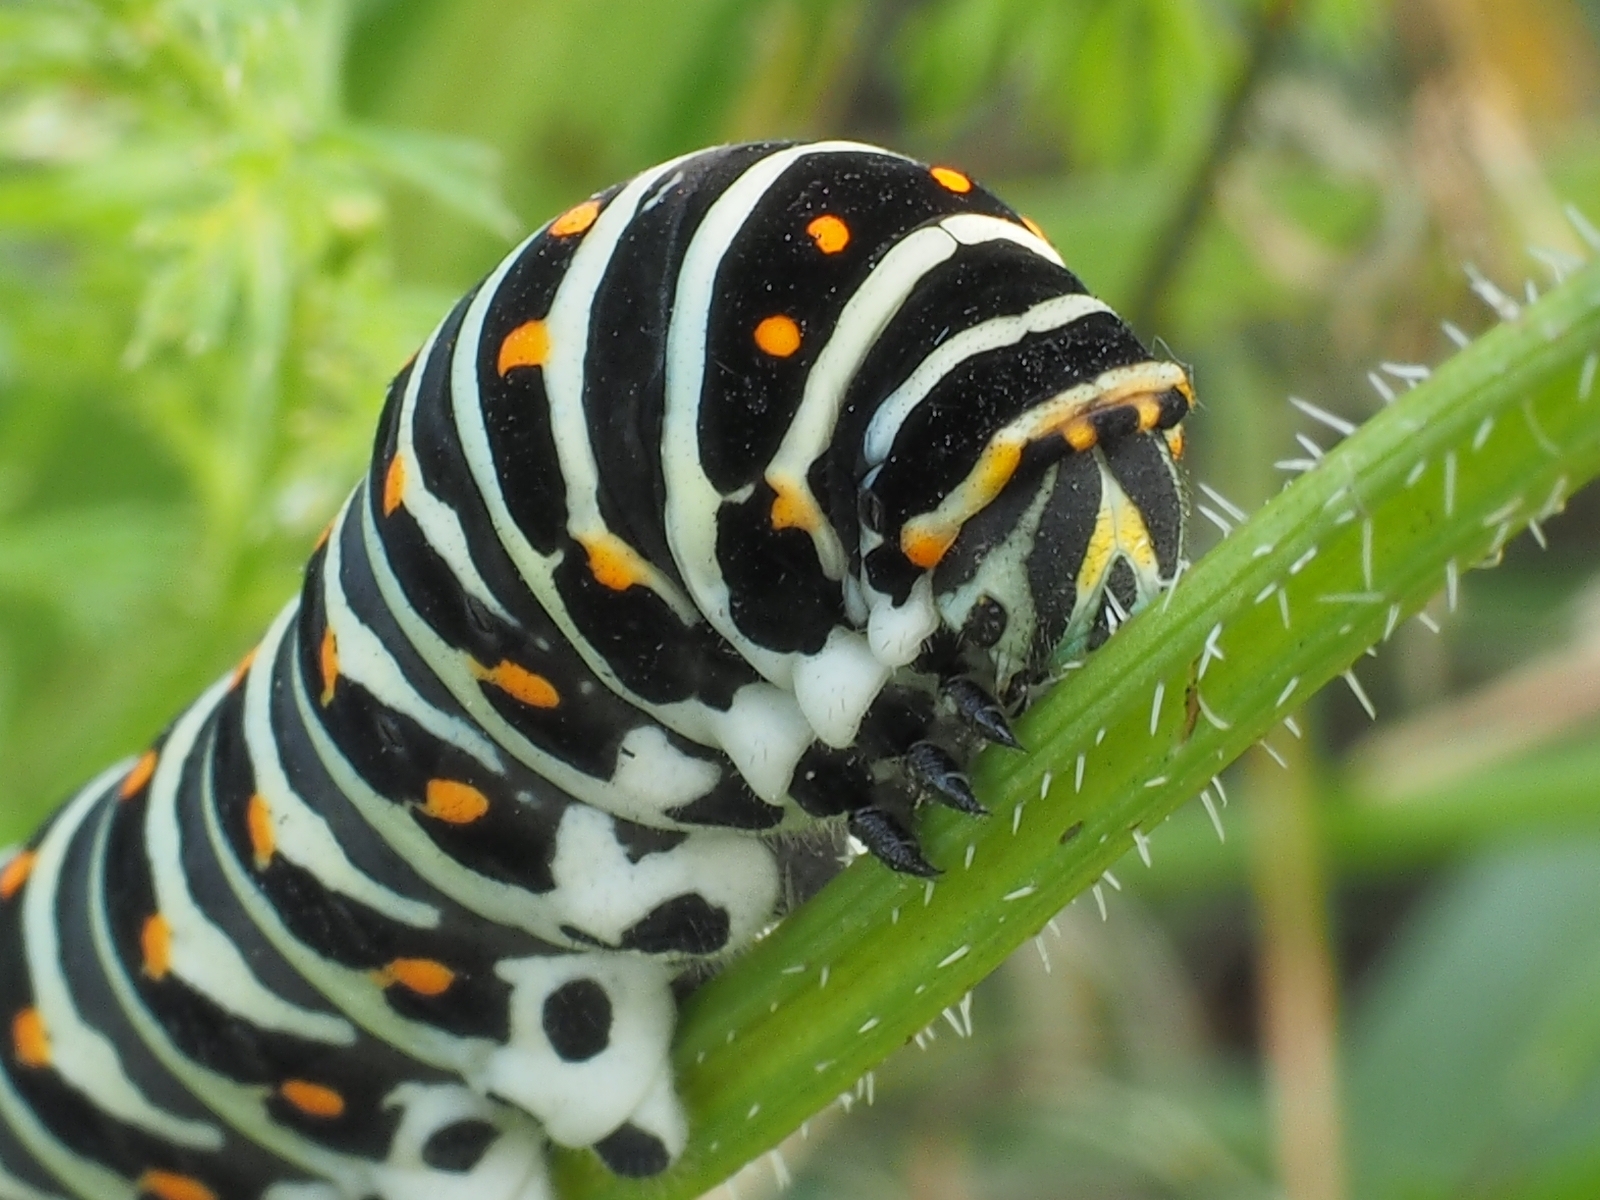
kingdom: Animalia
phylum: Arthropoda
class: Insecta
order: Lepidoptera
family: Papilionidae
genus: Papilio
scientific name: Papilio machaon
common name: Swallowtail
